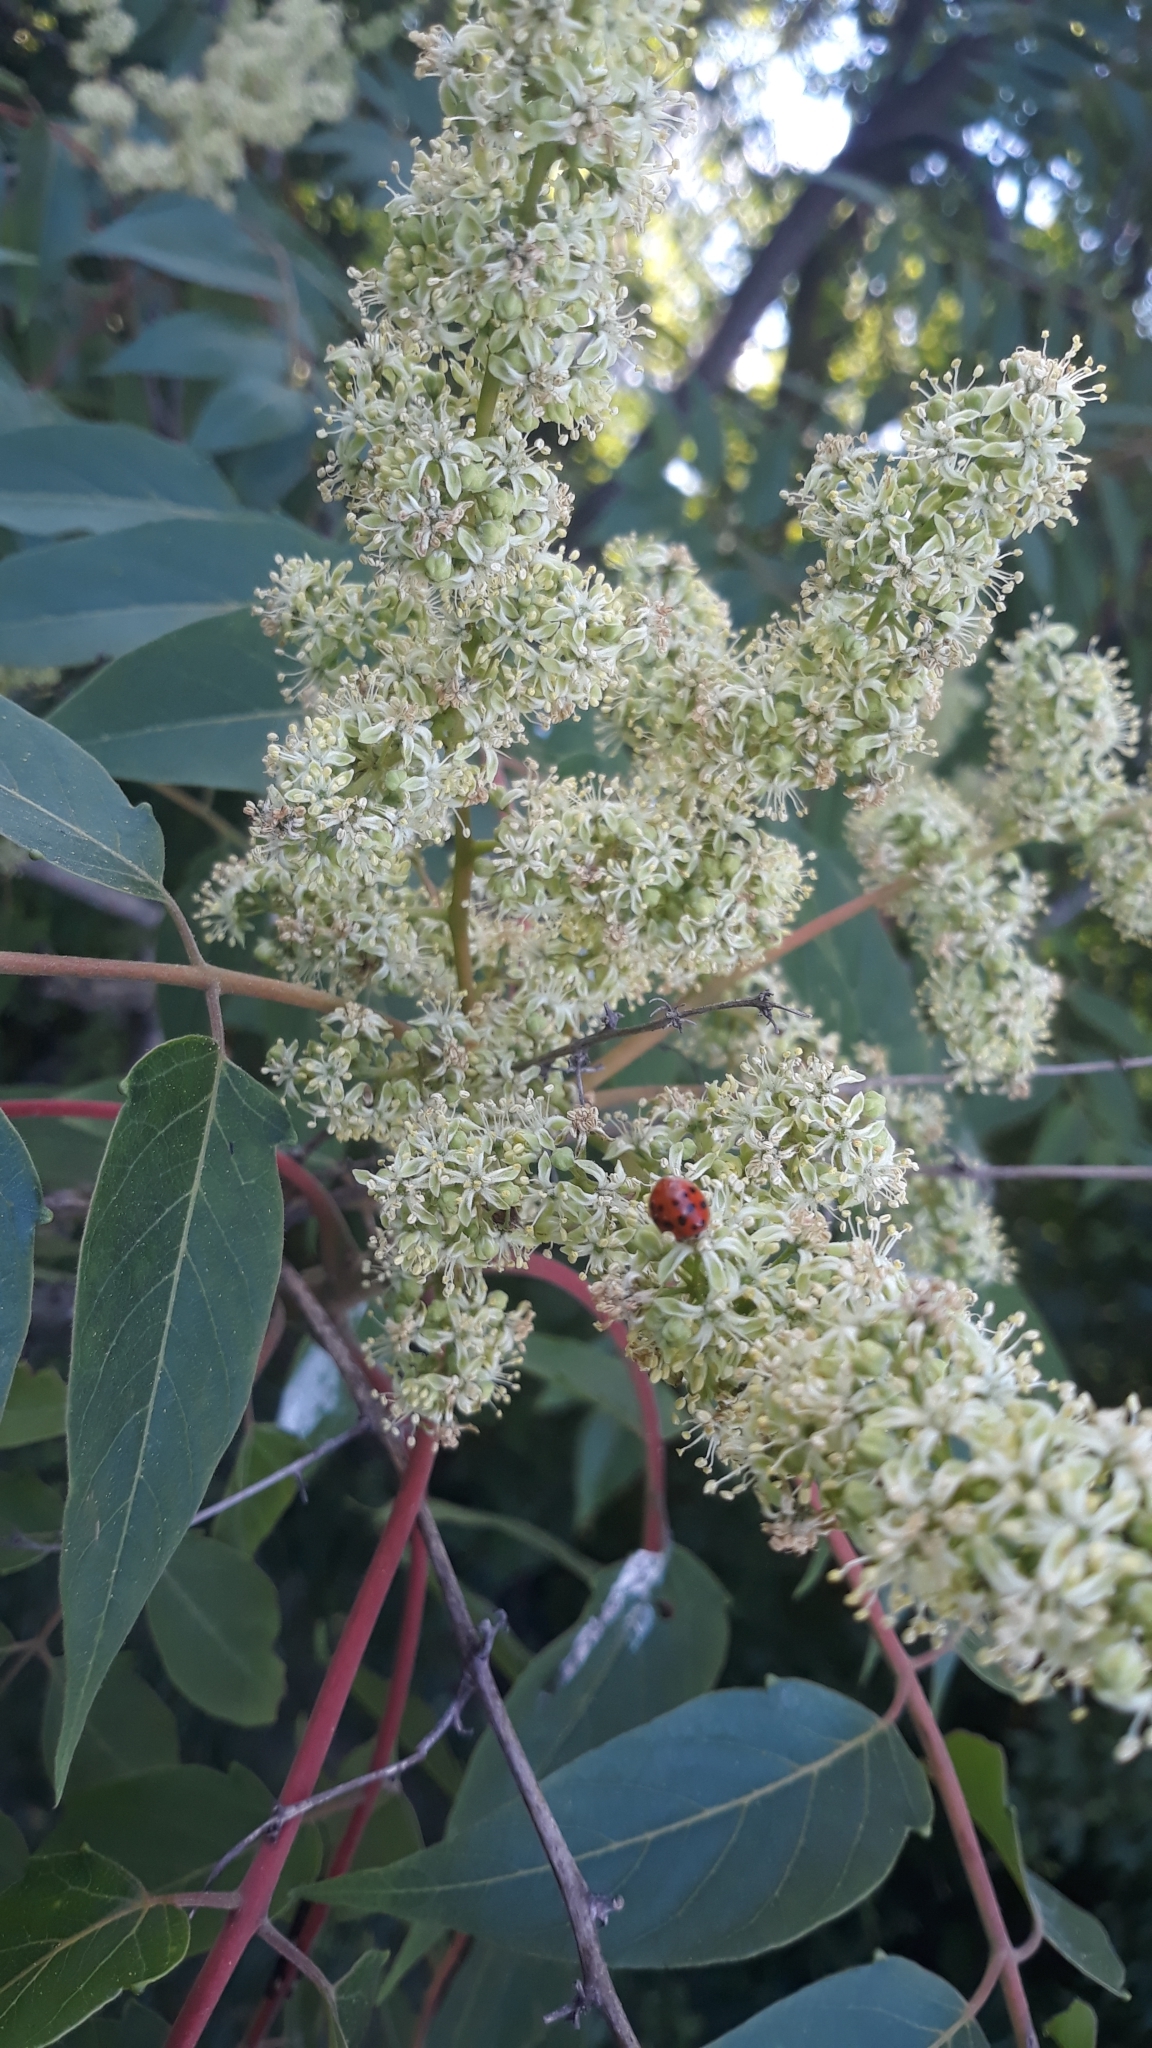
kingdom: Animalia
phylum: Arthropoda
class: Insecta
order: Coleoptera
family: Coccinellidae
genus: Harmonia
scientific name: Harmonia axyridis
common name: Harlequin ladybird
